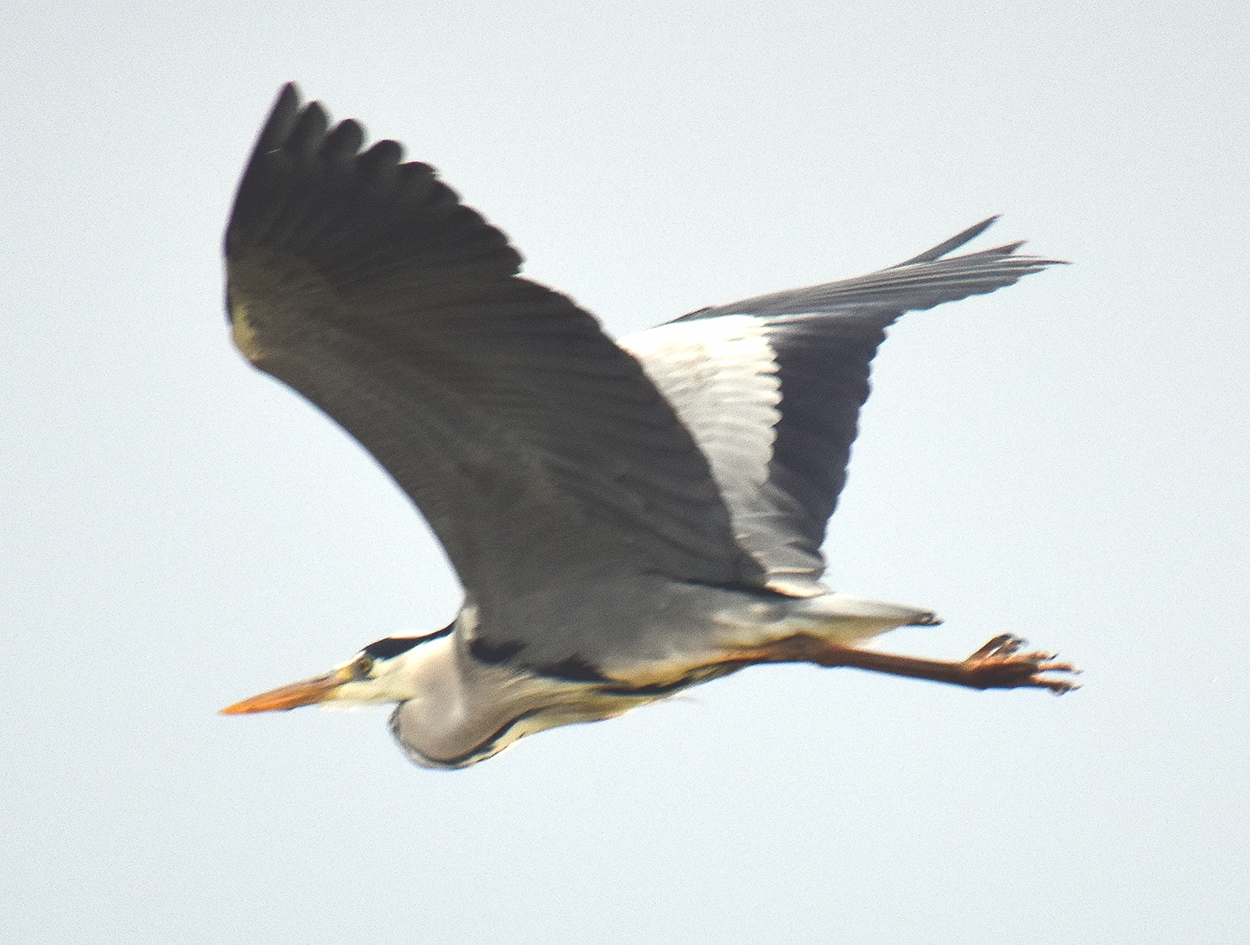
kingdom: Animalia
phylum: Chordata
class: Aves
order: Pelecaniformes
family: Ardeidae
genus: Ardea
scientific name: Ardea cinerea
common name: Grey heron
